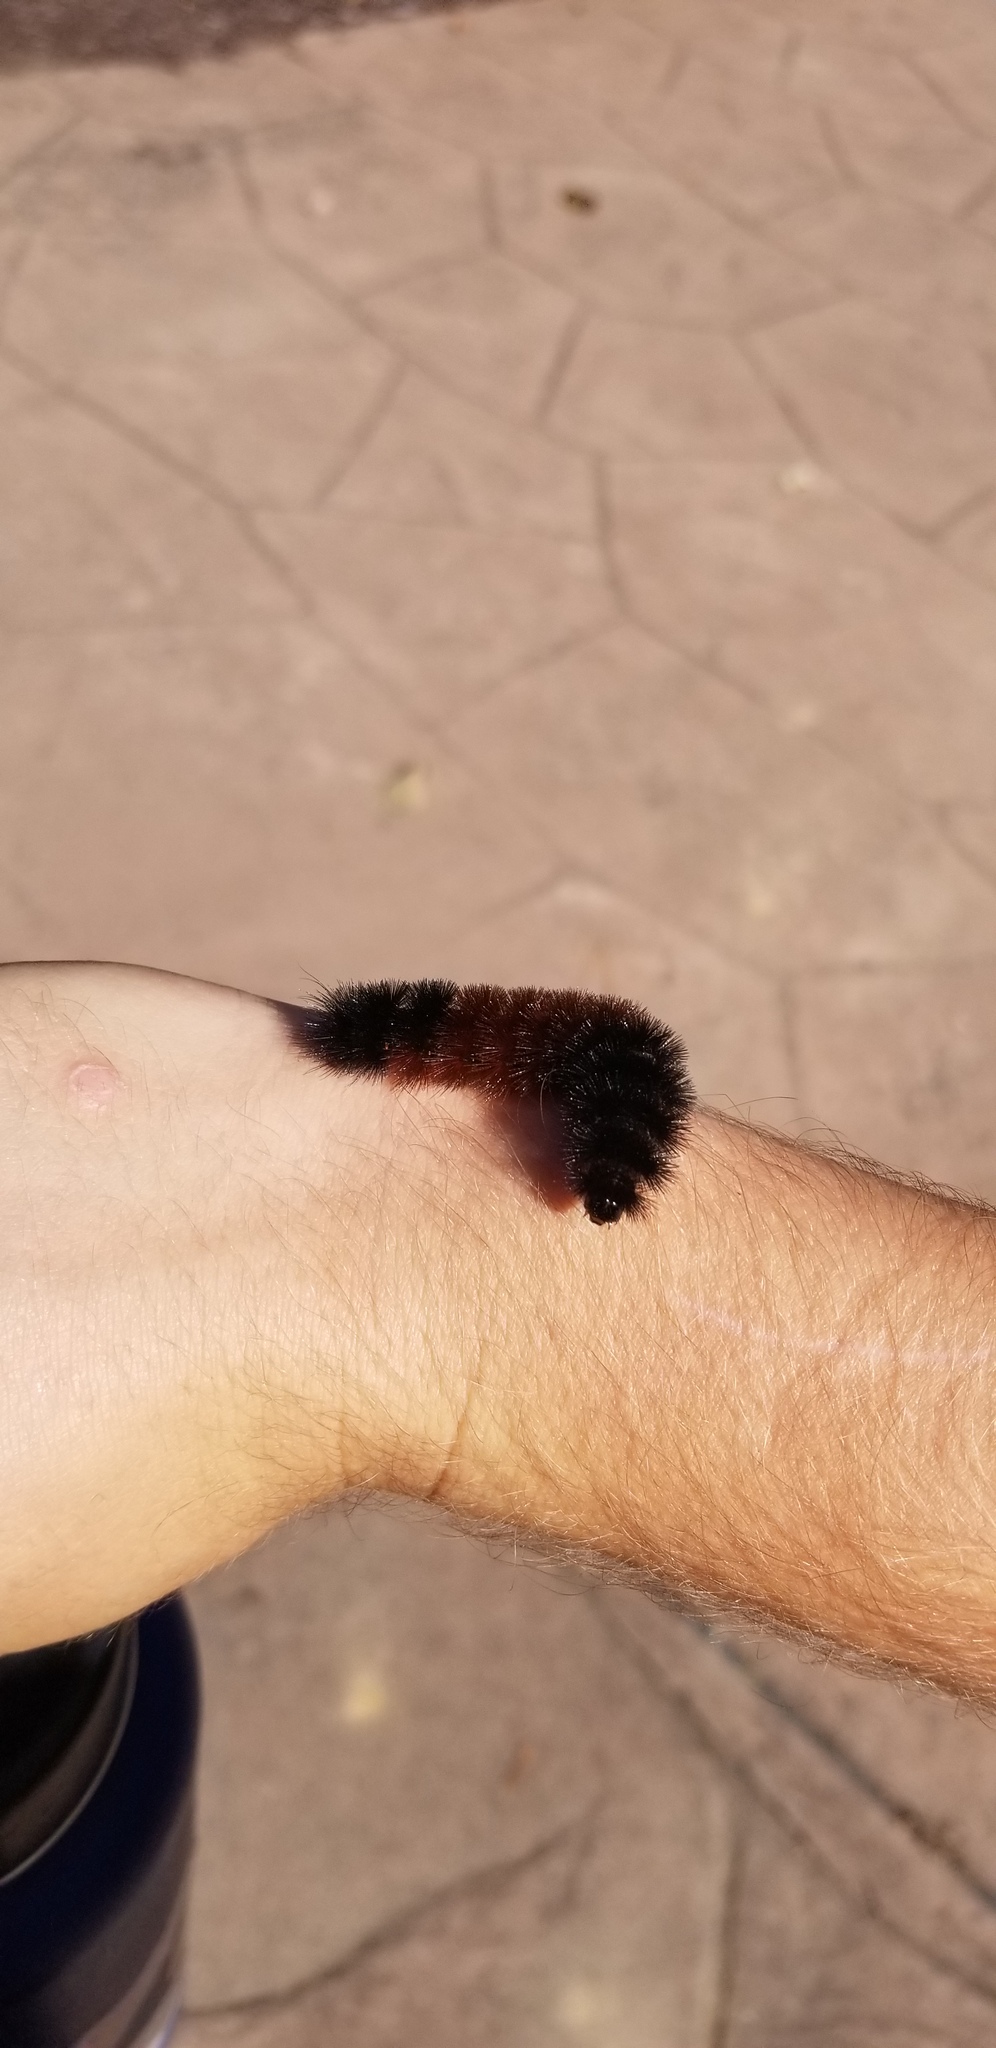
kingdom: Animalia
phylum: Arthropoda
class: Insecta
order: Lepidoptera
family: Erebidae
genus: Pyrrharctia
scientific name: Pyrrharctia isabella
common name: Isabella tiger moth
